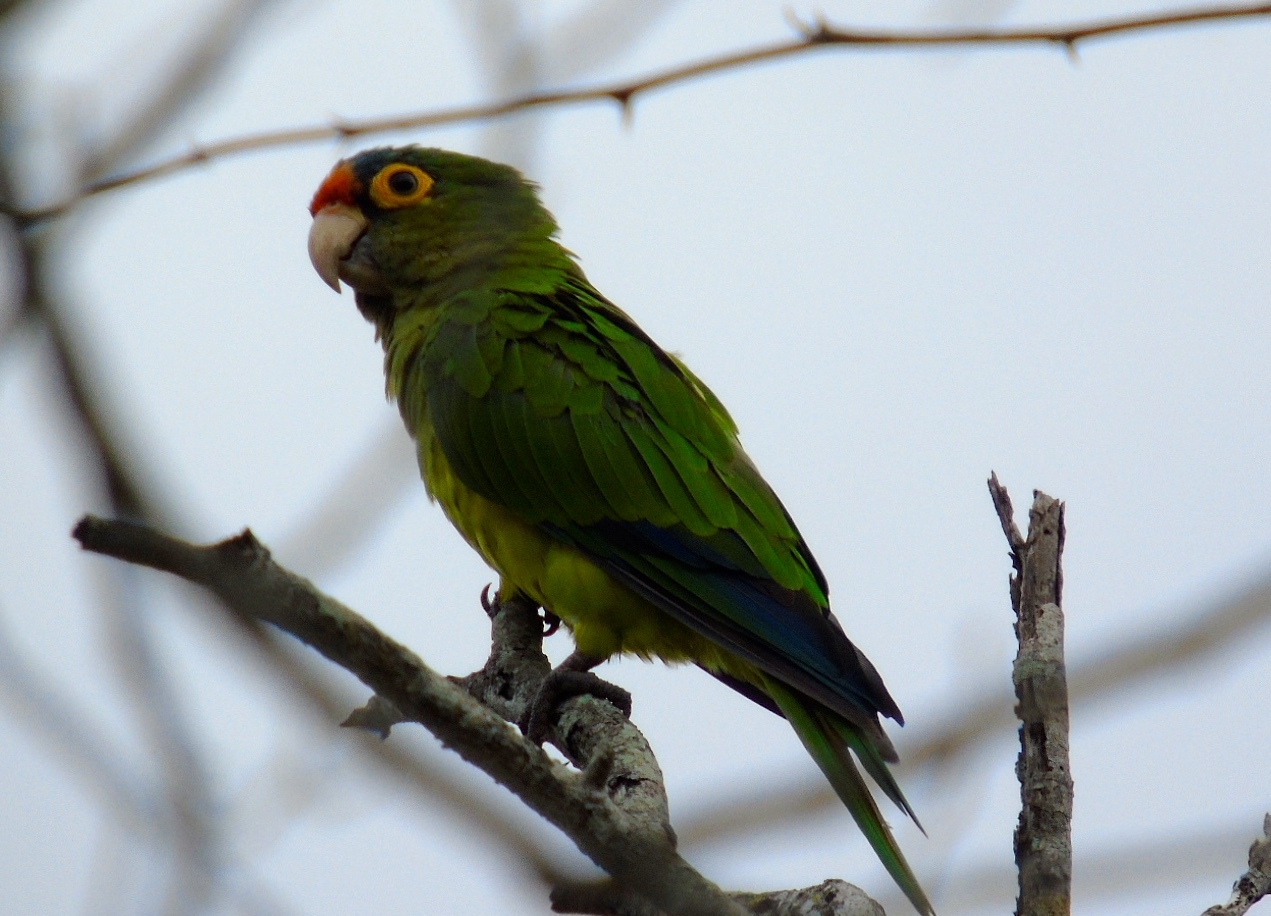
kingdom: Animalia
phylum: Chordata
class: Aves
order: Psittaciformes
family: Psittacidae
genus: Aratinga
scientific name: Aratinga canicularis
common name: Orange-fronted parakeet
